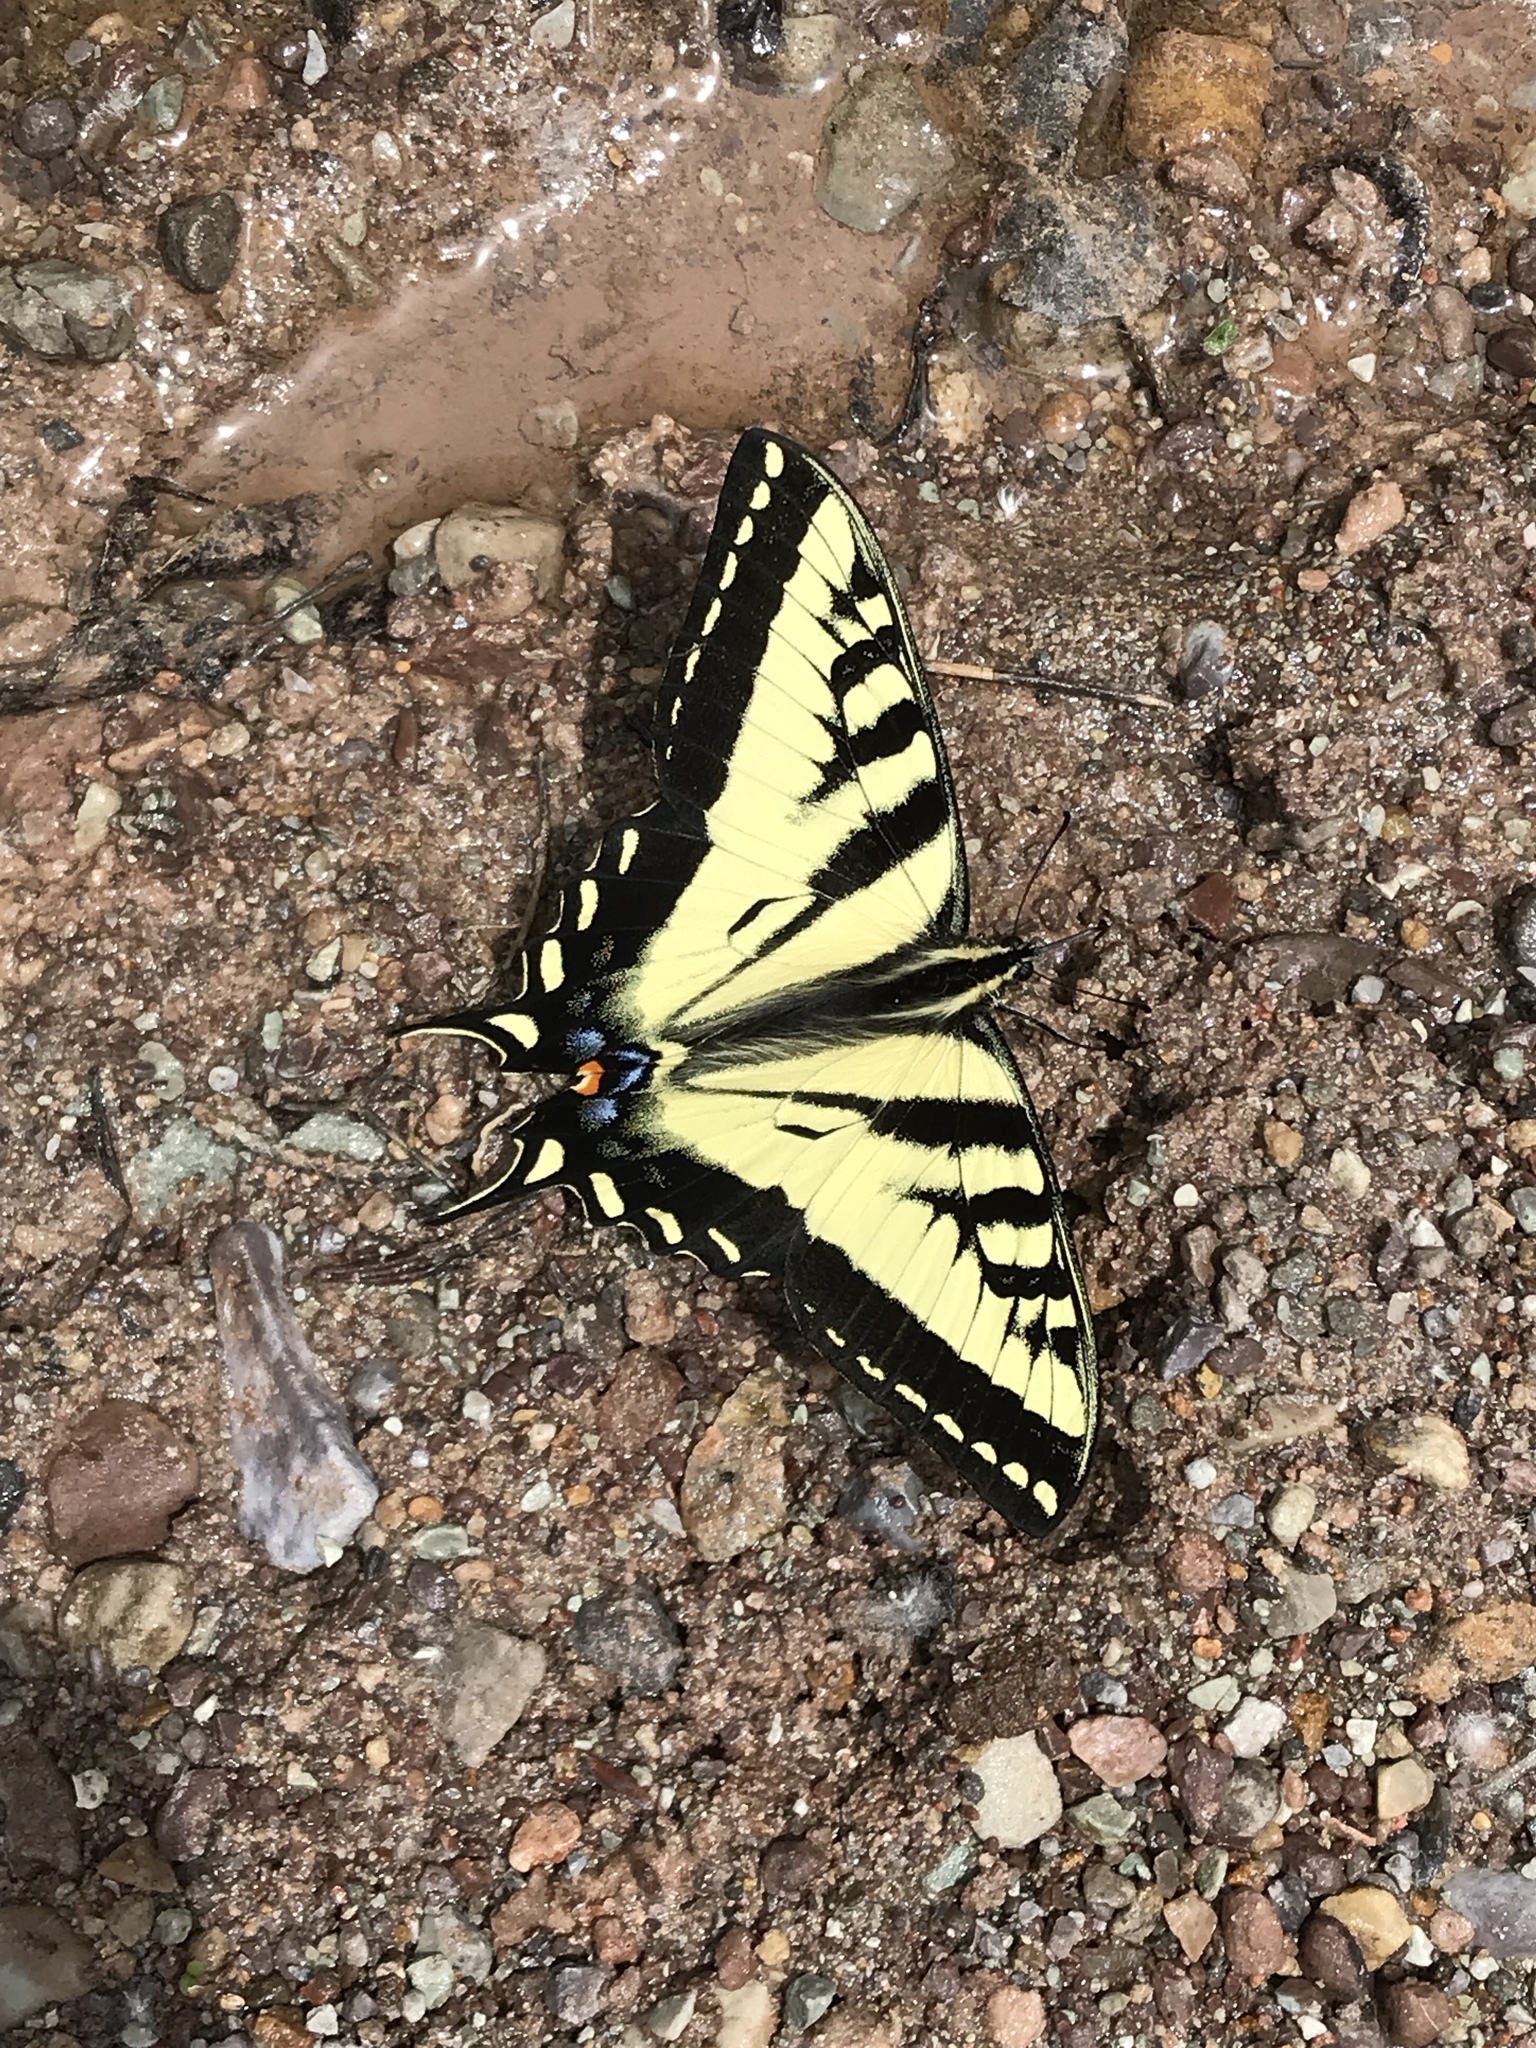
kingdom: Animalia
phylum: Arthropoda
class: Insecta
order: Lepidoptera
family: Papilionidae
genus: Papilio
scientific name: Papilio rutulus
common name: Western tiger swallowtail
